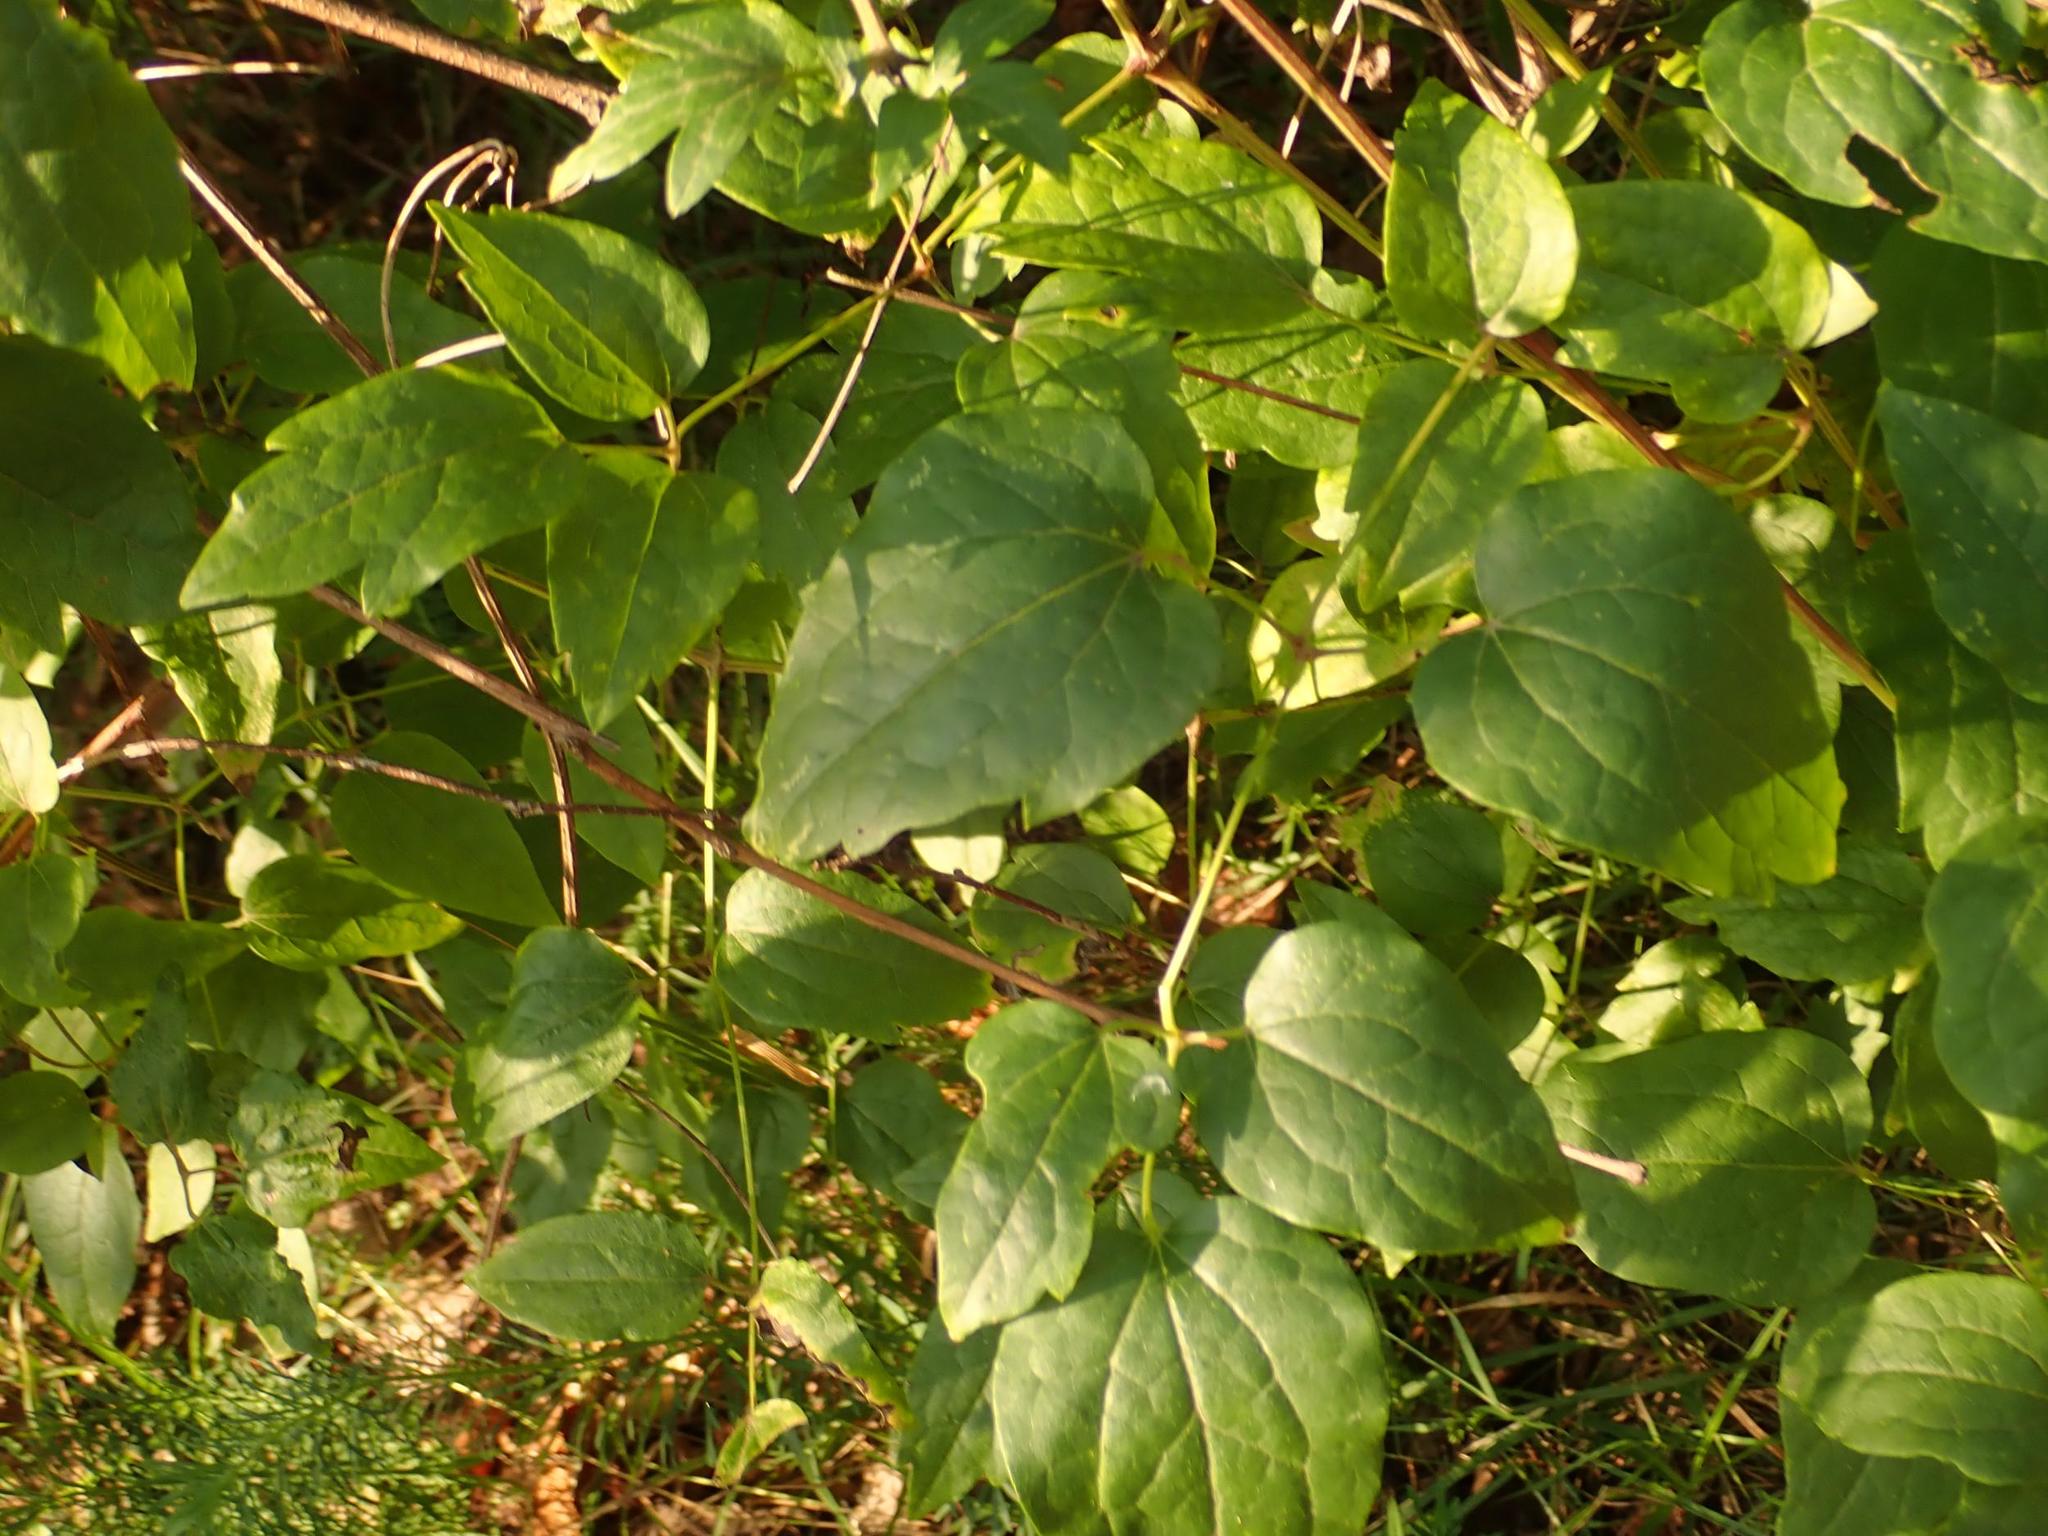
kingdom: Plantae
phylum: Tracheophyta
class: Magnoliopsida
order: Ranunculales
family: Ranunculaceae
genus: Clematis
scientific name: Clematis vitalba
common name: Evergreen clematis
